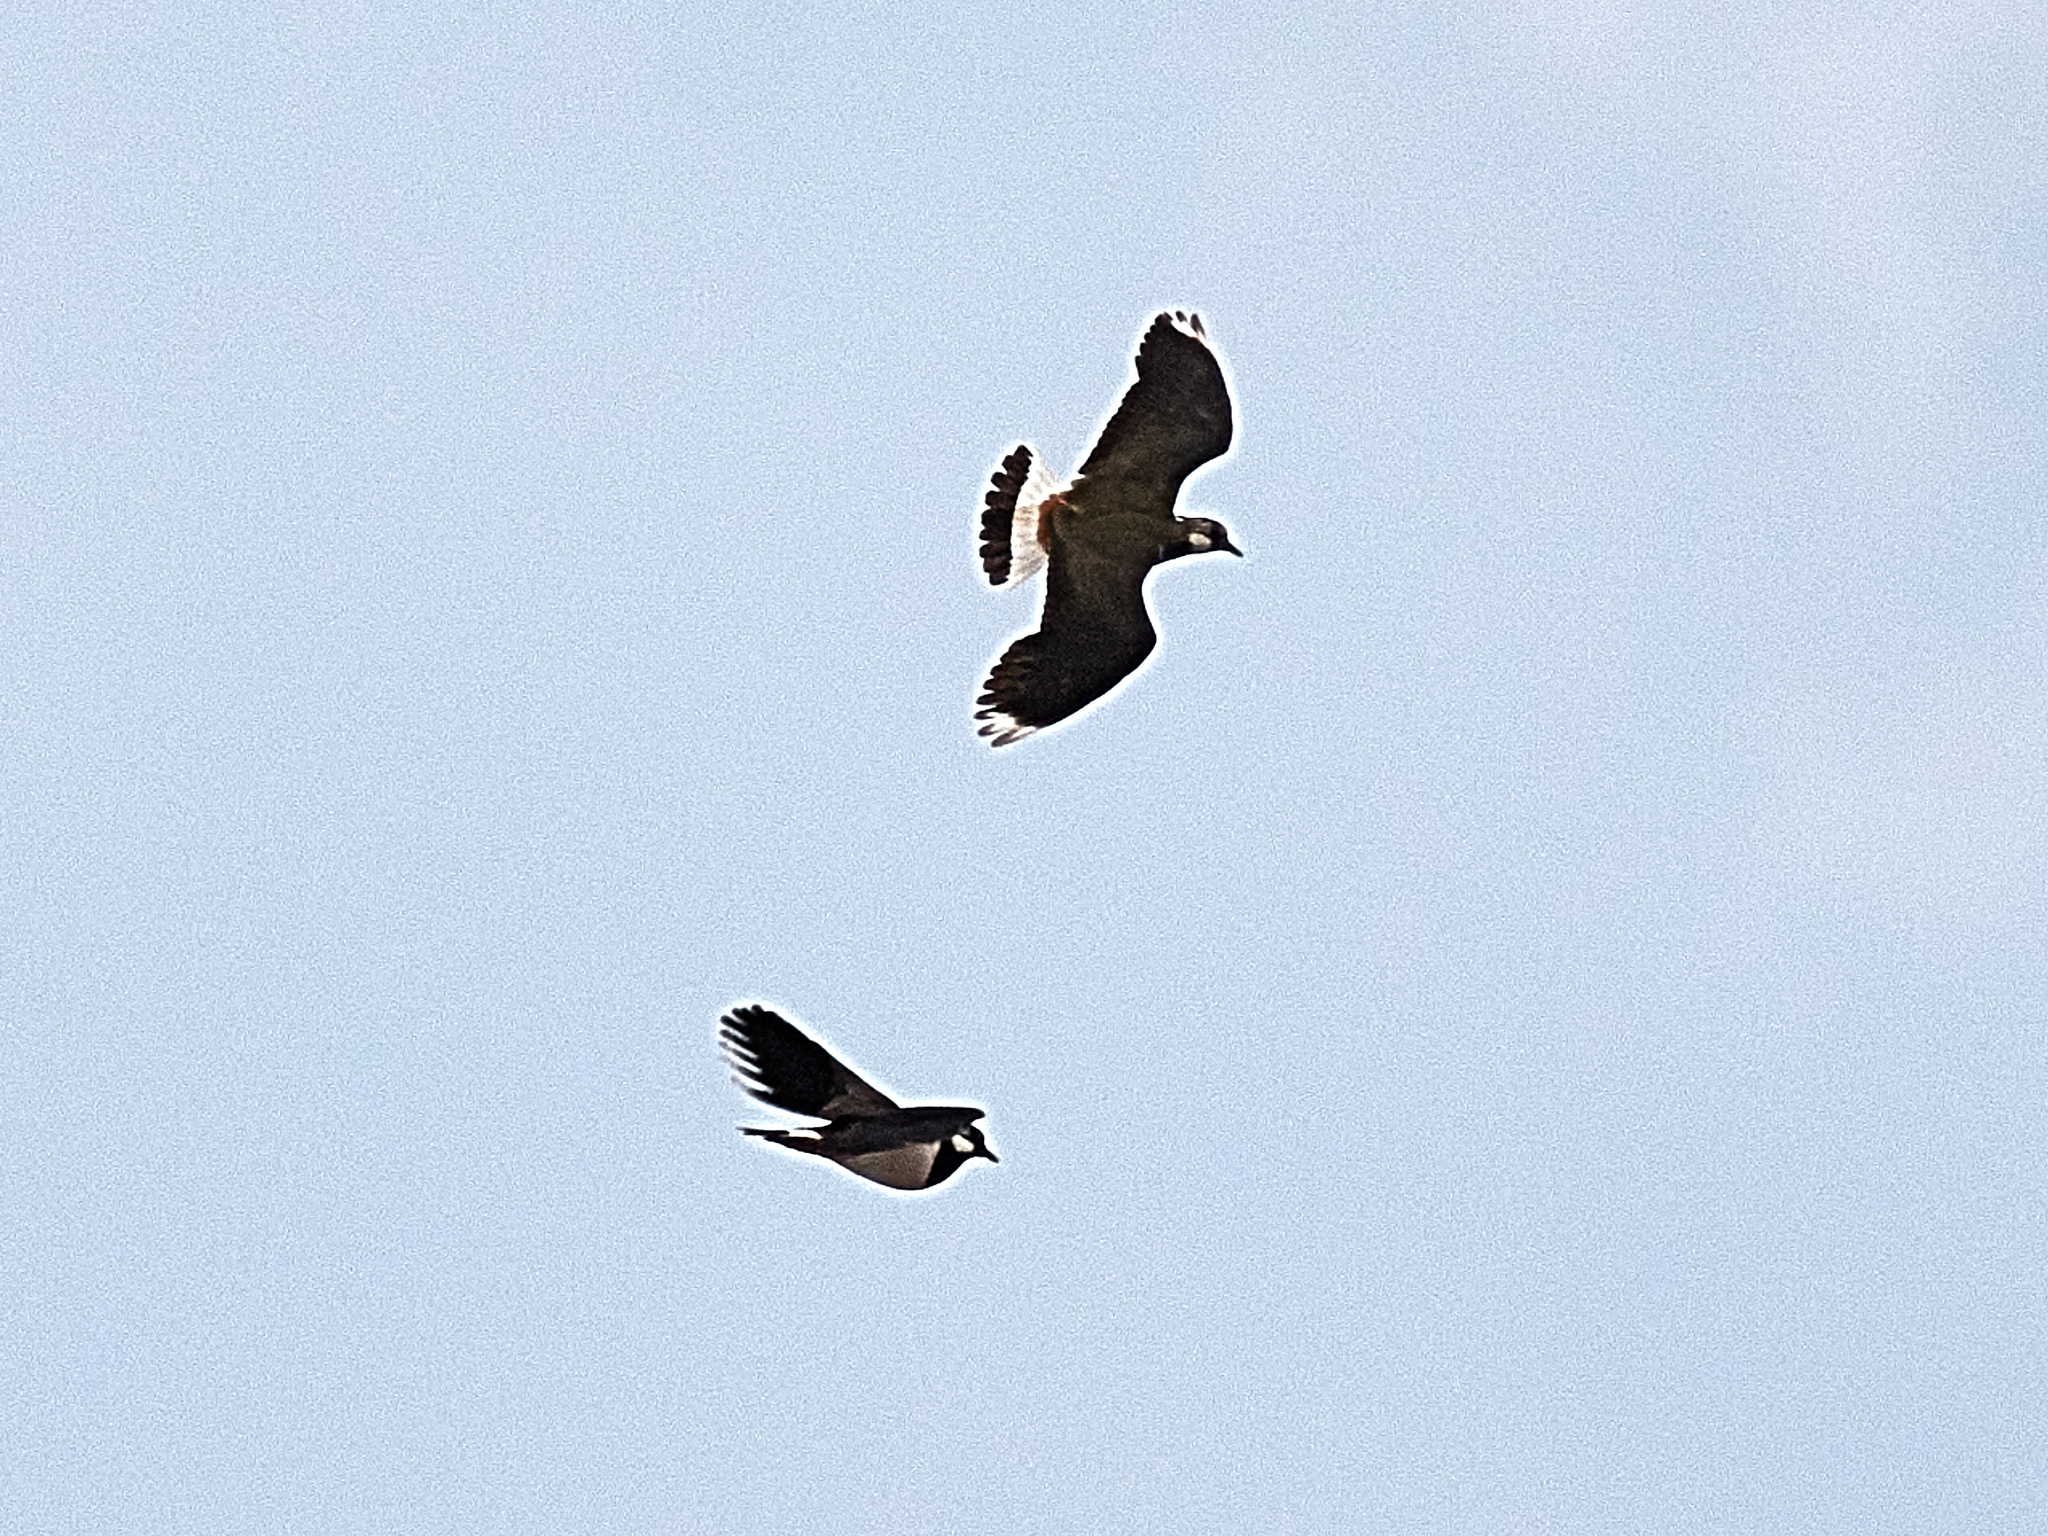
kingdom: Animalia
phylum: Chordata
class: Aves
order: Charadriiformes
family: Charadriidae
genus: Vanellus
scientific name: Vanellus vanellus
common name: Northern lapwing
